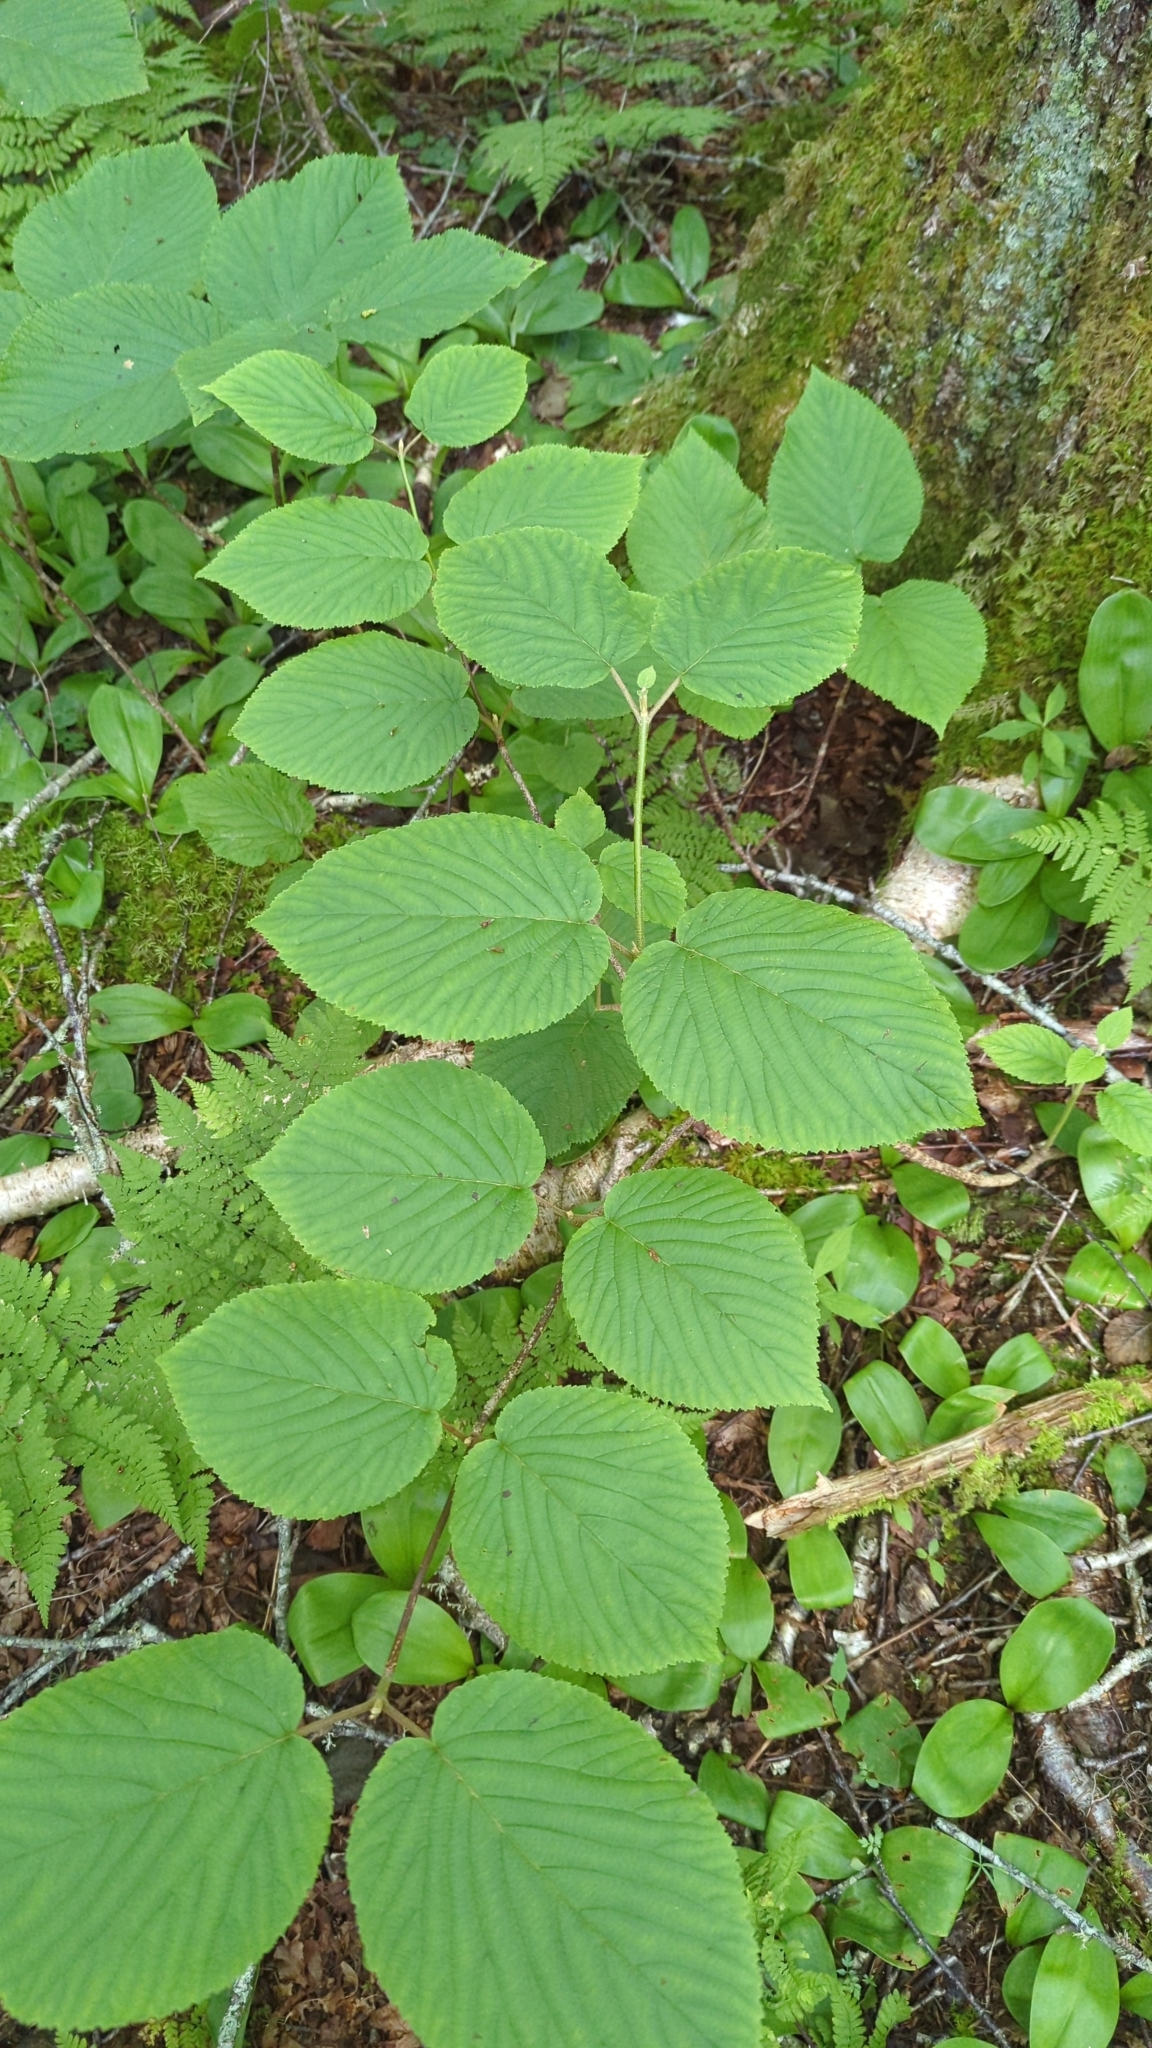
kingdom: Plantae
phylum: Tracheophyta
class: Magnoliopsida
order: Dipsacales
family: Viburnaceae
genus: Viburnum
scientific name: Viburnum lantanoides
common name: Hobblebush
